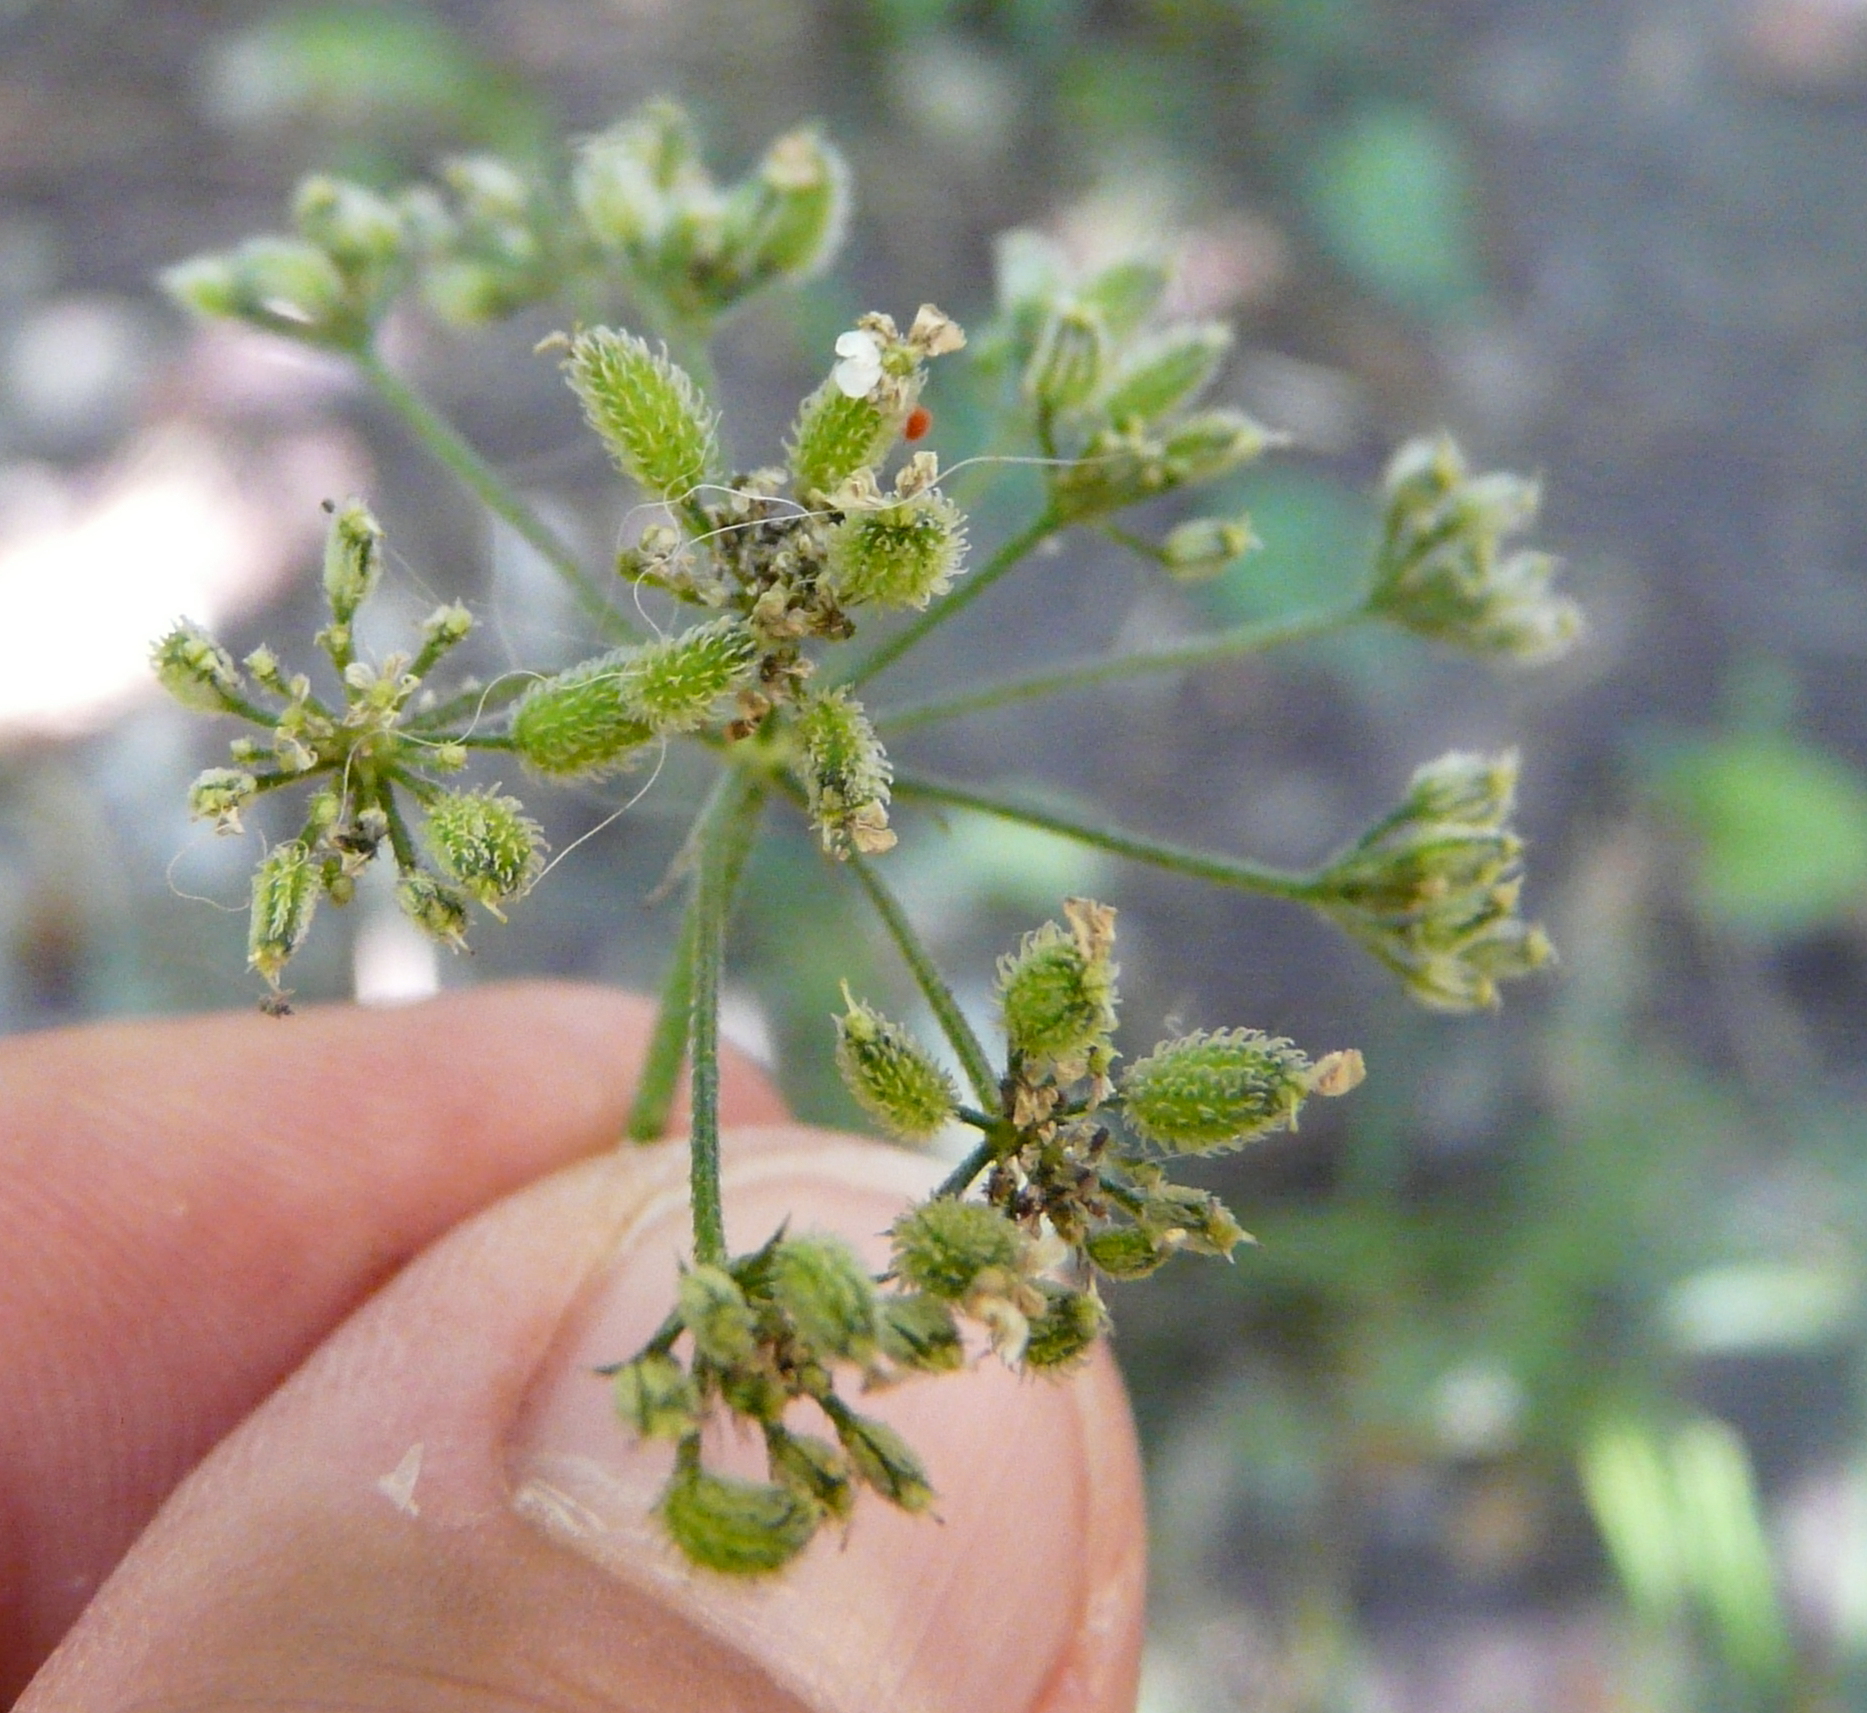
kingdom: Plantae
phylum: Tracheophyta
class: Magnoliopsida
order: Apiales
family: Apiaceae
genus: Torilis
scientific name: Torilis japonica
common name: Upright hedge-parsley
